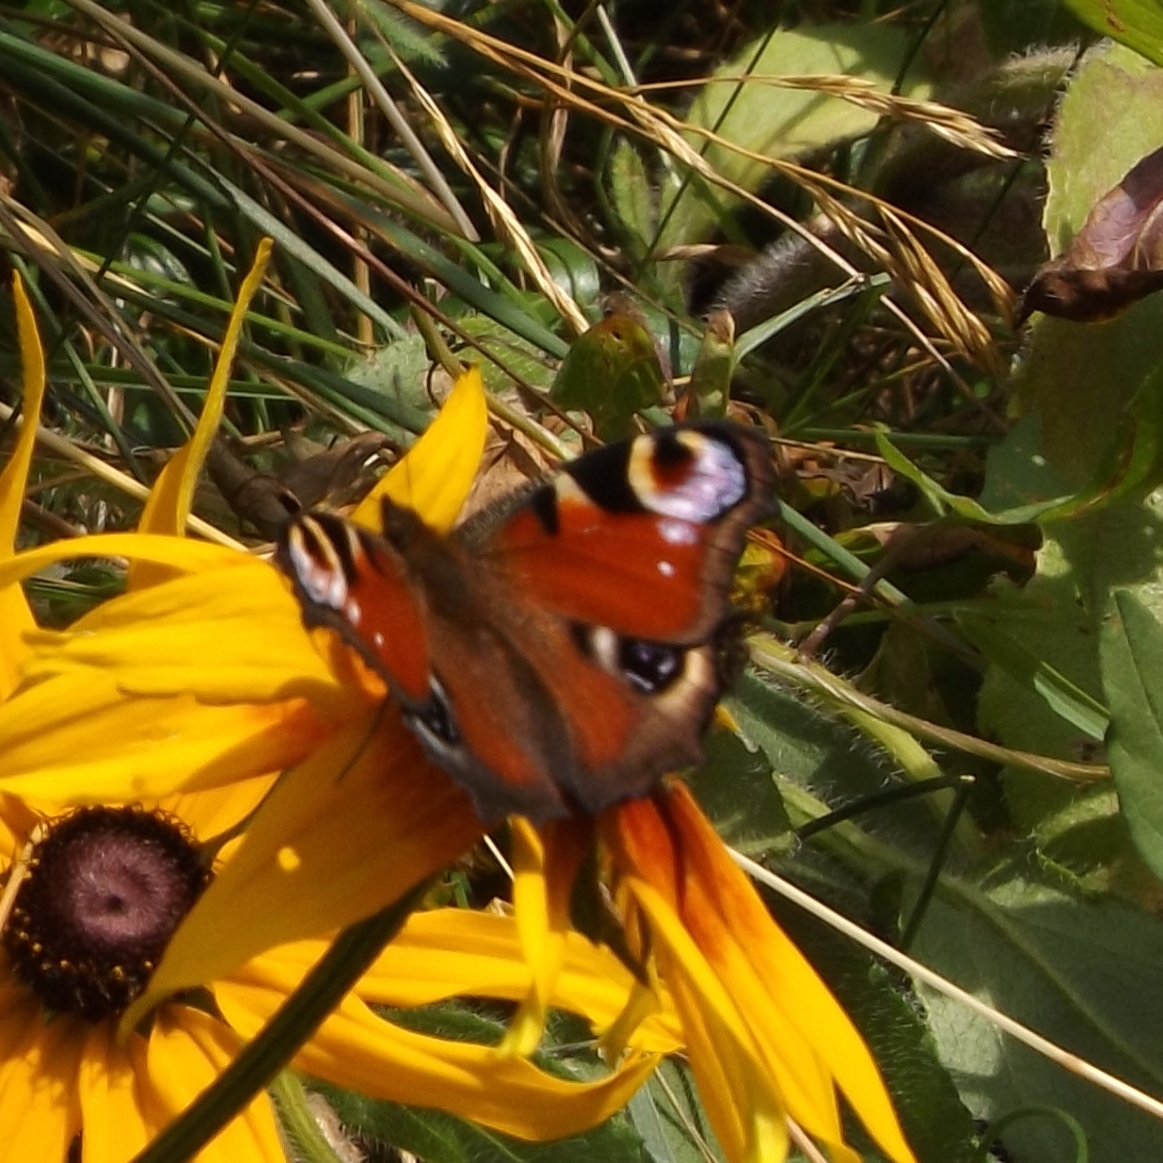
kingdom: Animalia
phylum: Arthropoda
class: Insecta
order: Lepidoptera
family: Nymphalidae
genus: Aglais
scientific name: Aglais io
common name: Peacock
